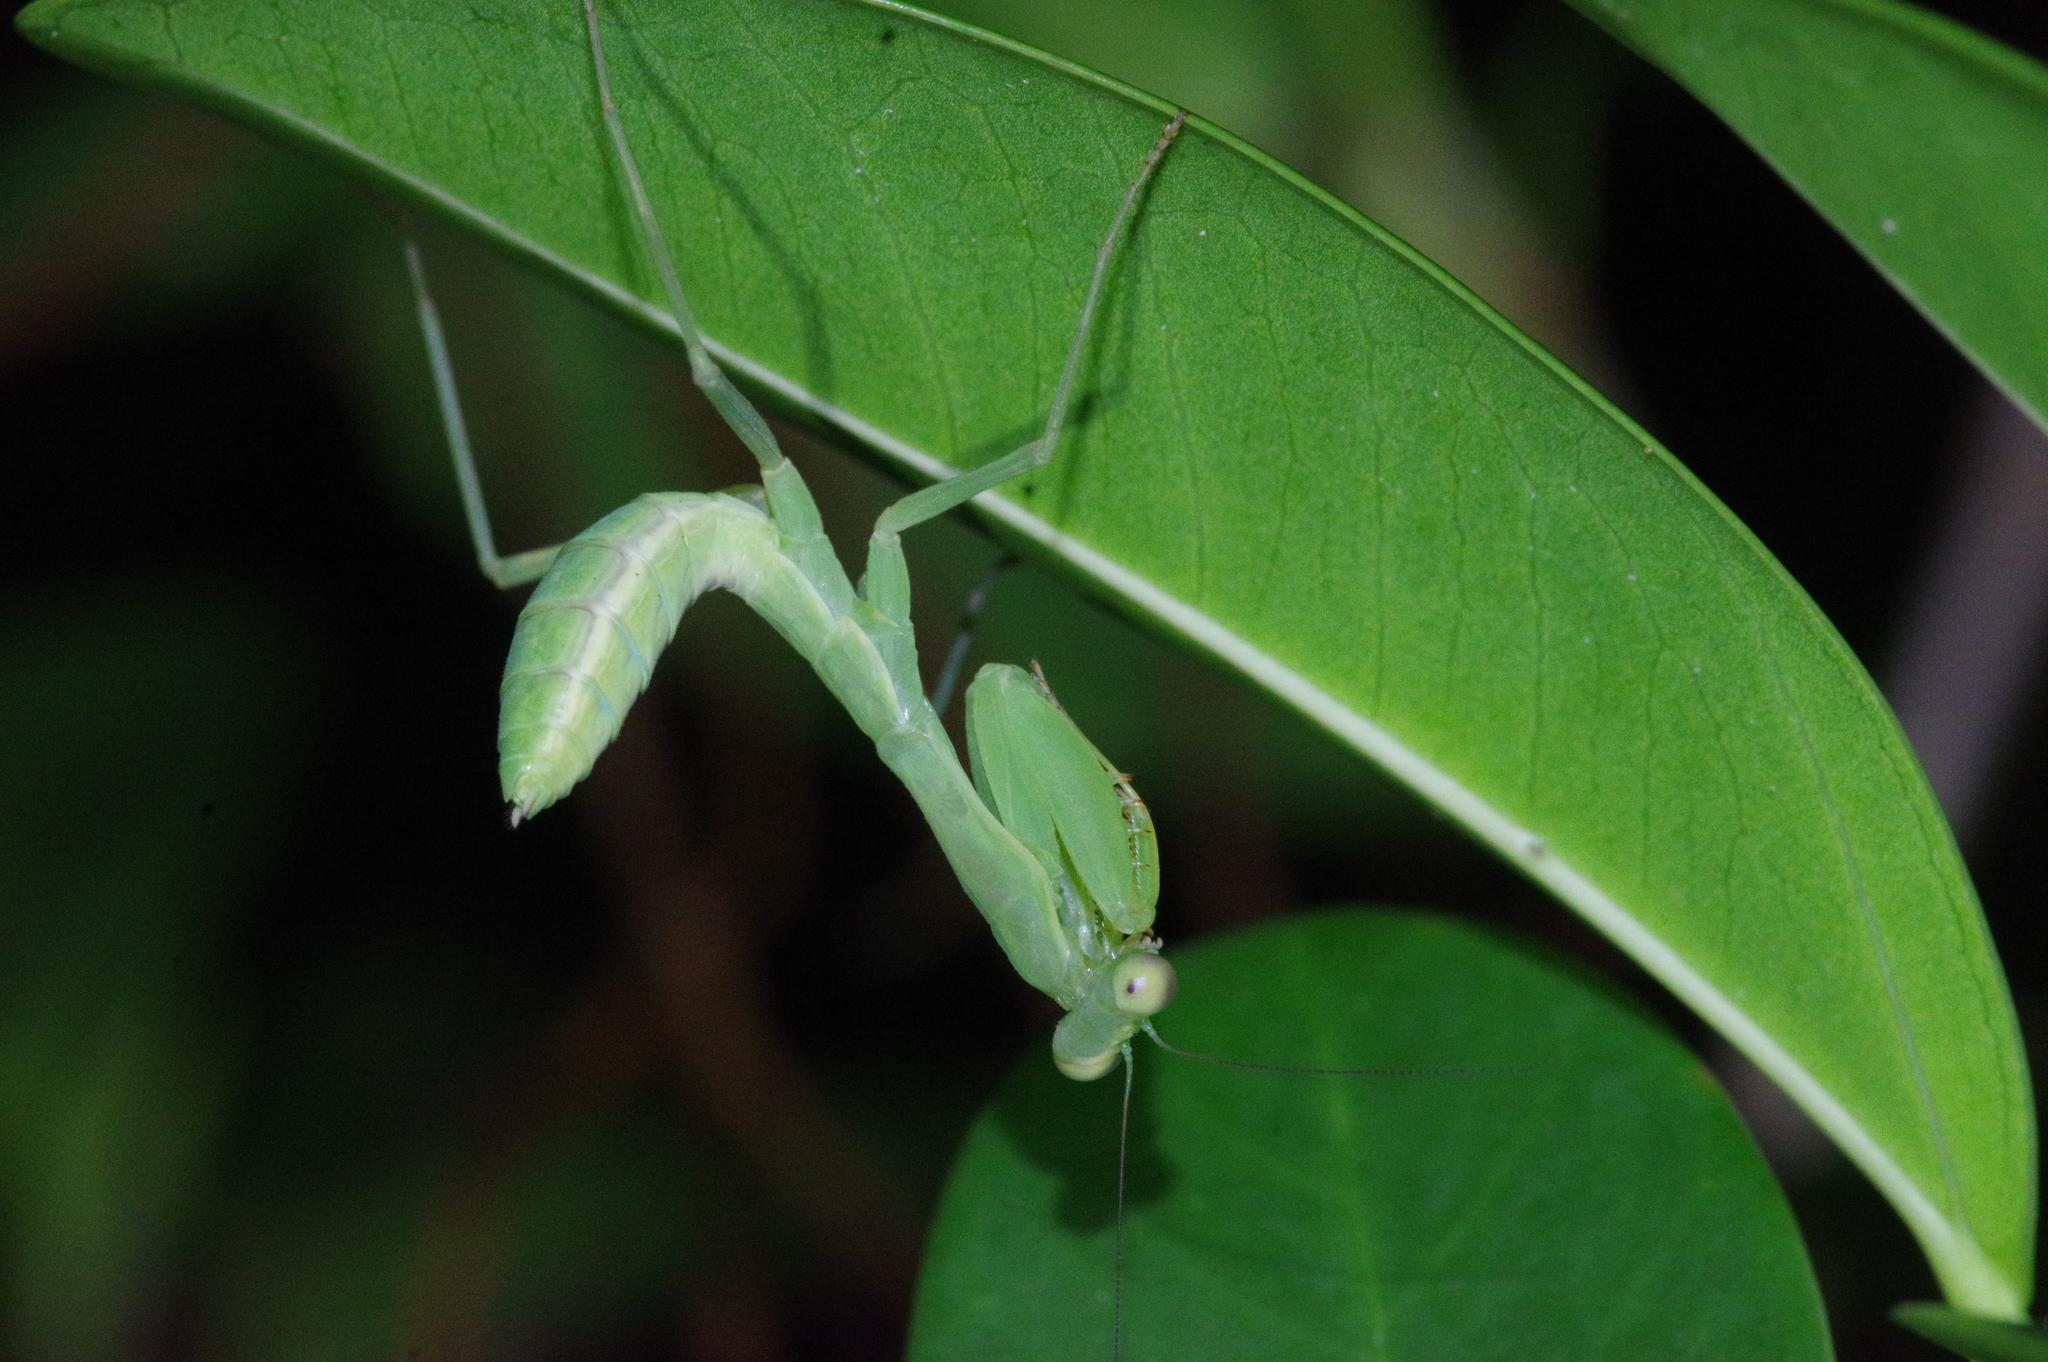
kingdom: Animalia
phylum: Arthropoda
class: Insecta
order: Mantodea
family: Mantidae
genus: Hierodula
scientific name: Hierodula patellifera
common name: Asian mantis
